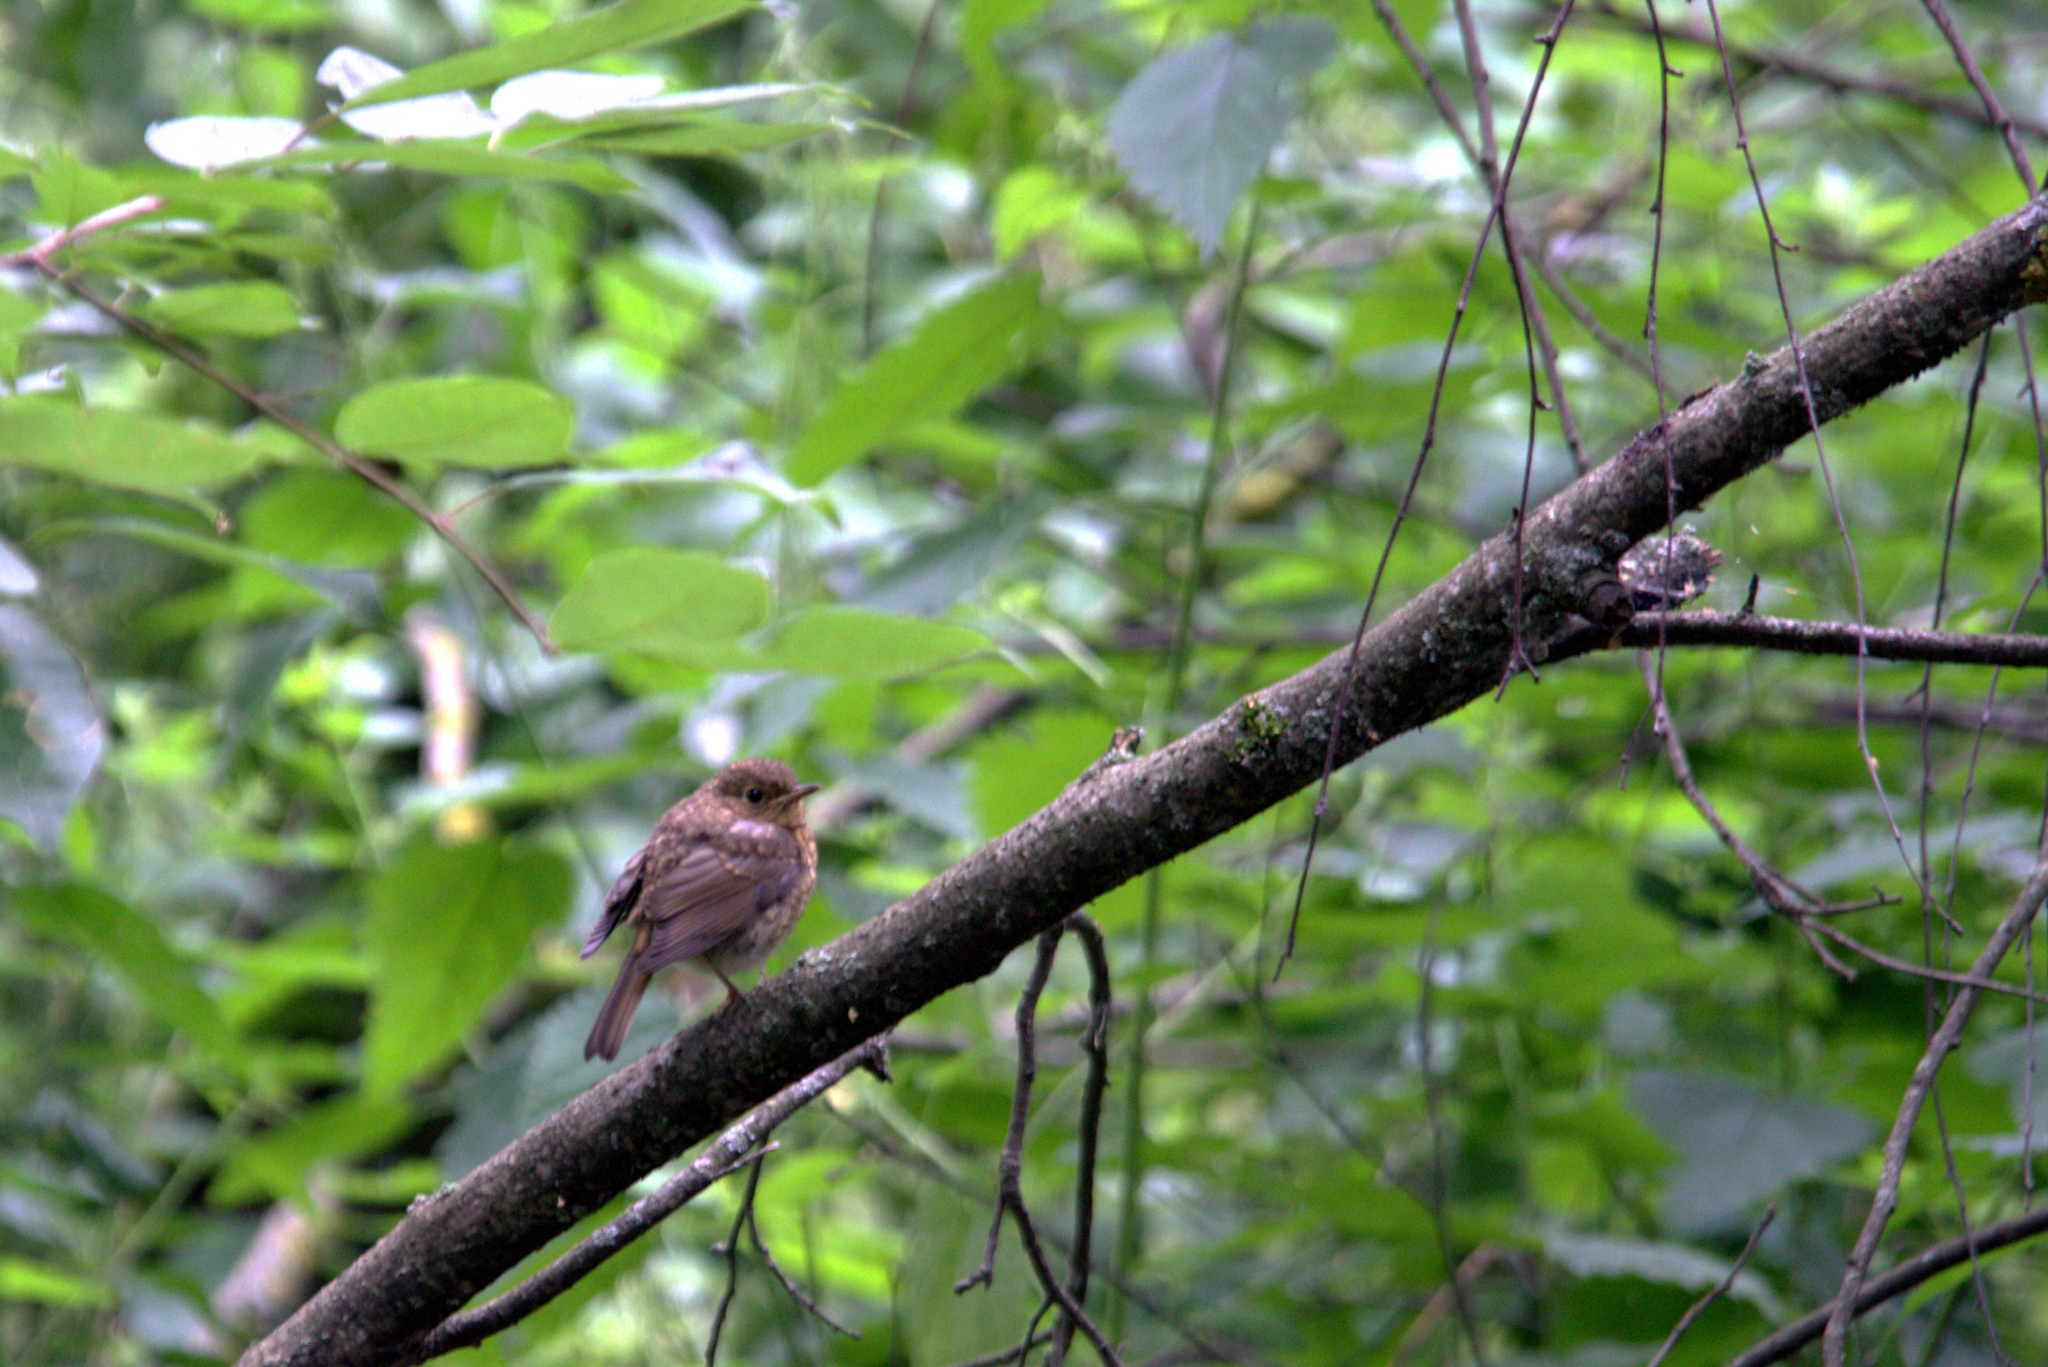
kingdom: Animalia
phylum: Chordata
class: Aves
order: Passeriformes
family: Muscicapidae
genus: Erithacus
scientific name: Erithacus rubecula
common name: European robin
